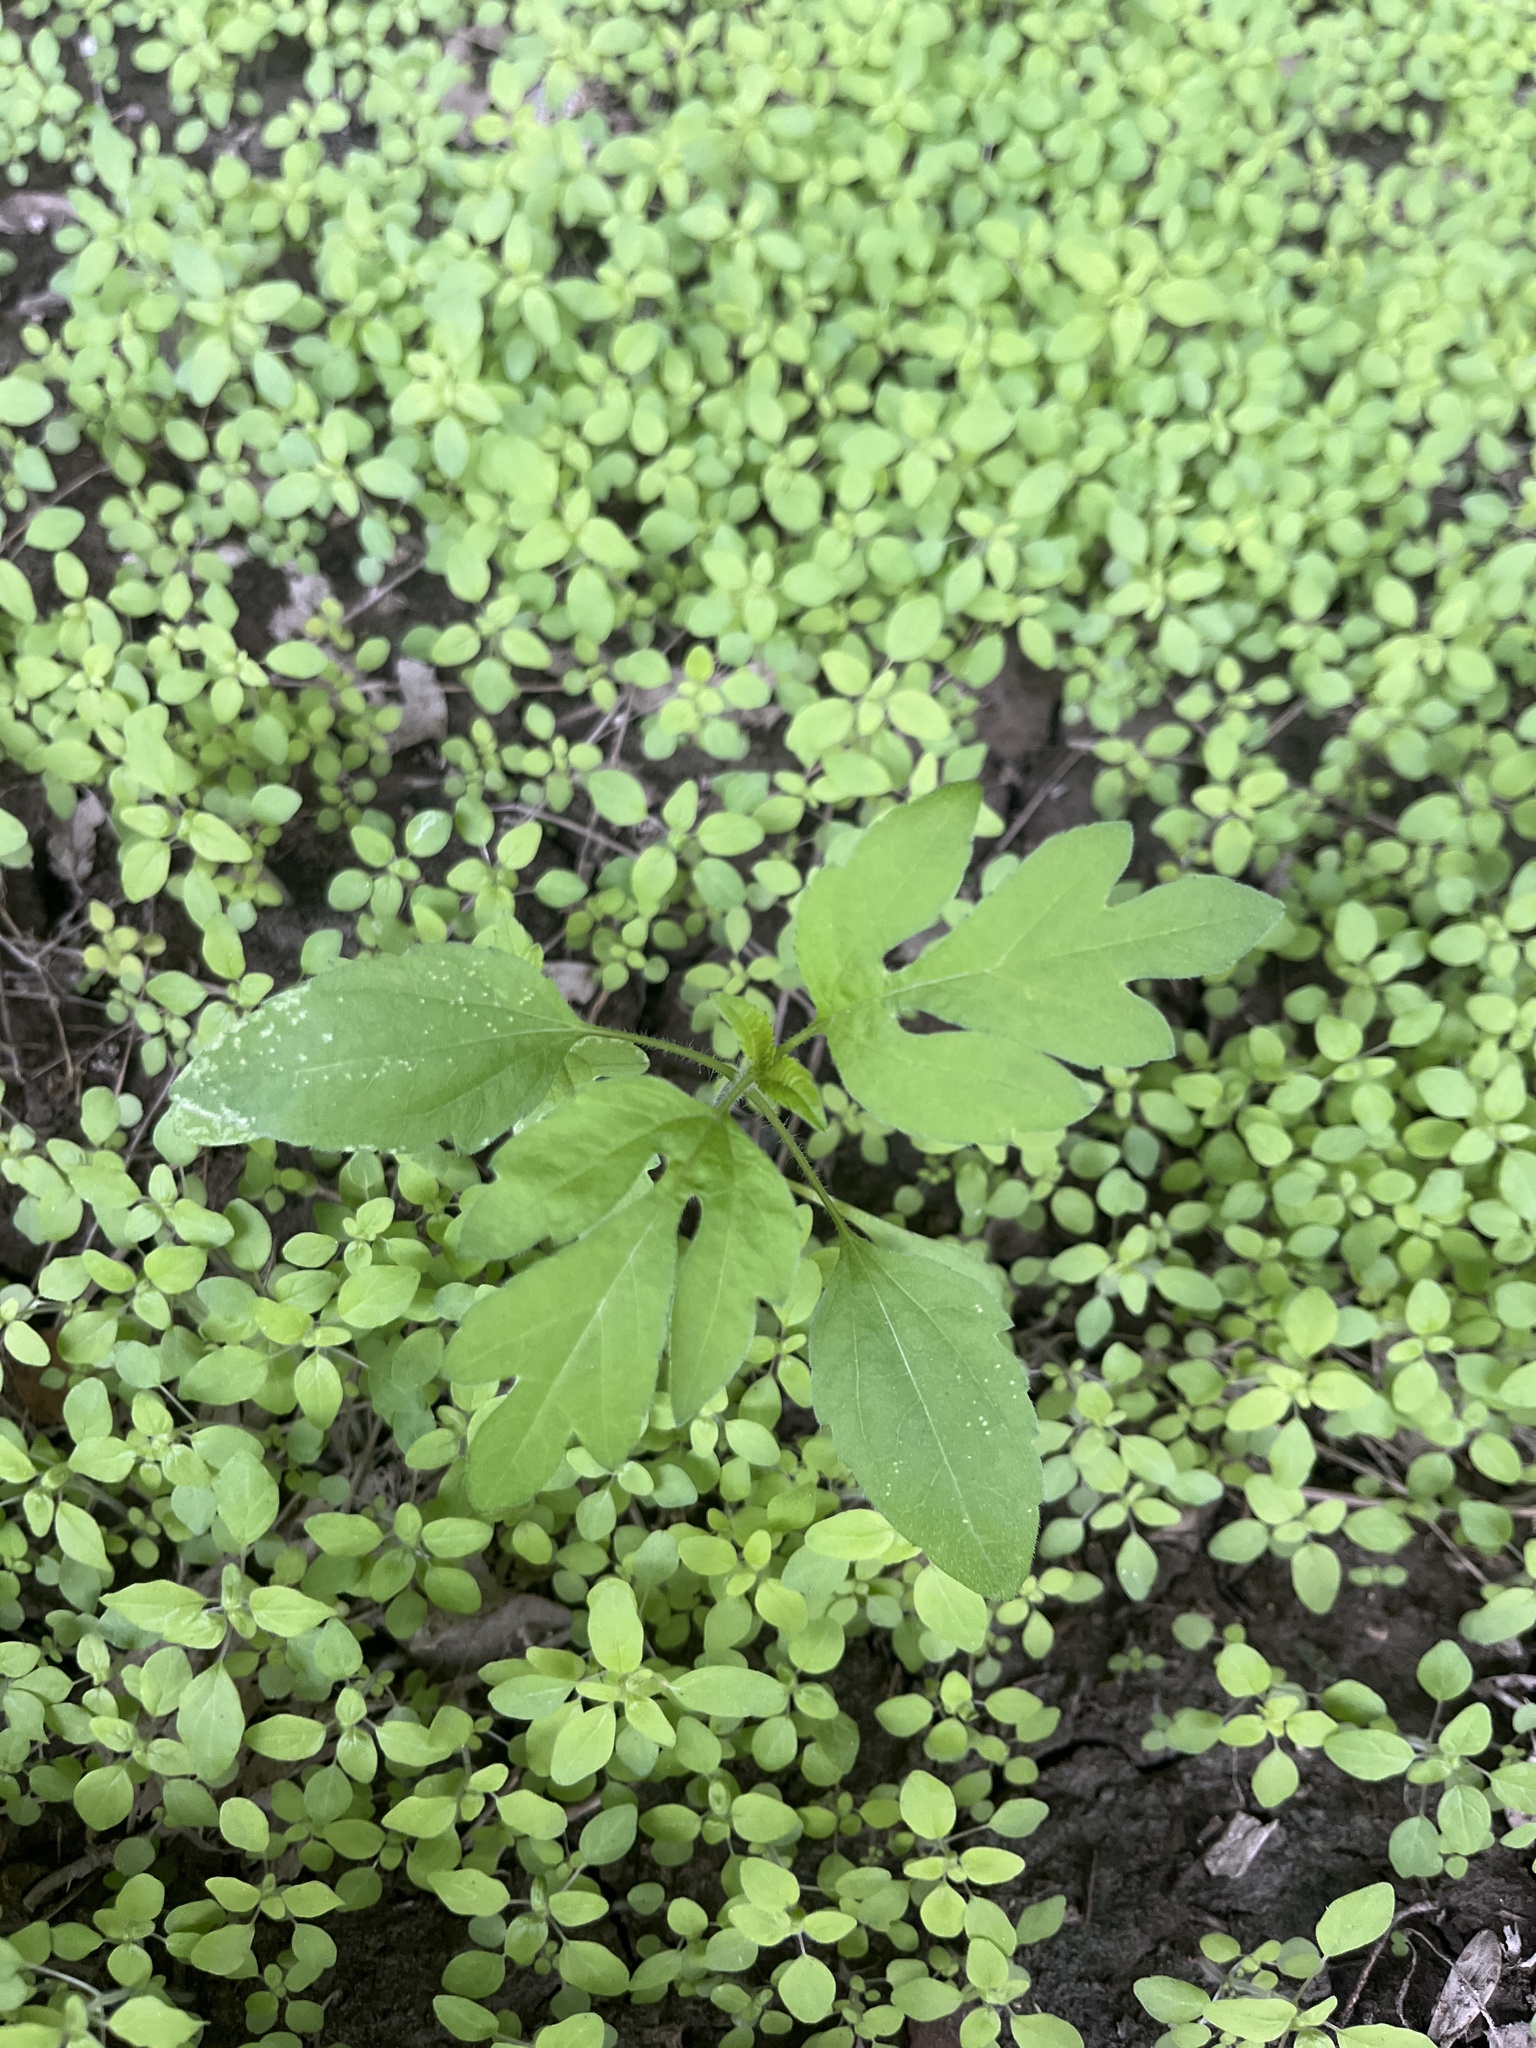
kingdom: Plantae
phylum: Tracheophyta
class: Magnoliopsida
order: Asterales
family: Asteraceae
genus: Ambrosia
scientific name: Ambrosia trifida
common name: Giant ragweed
